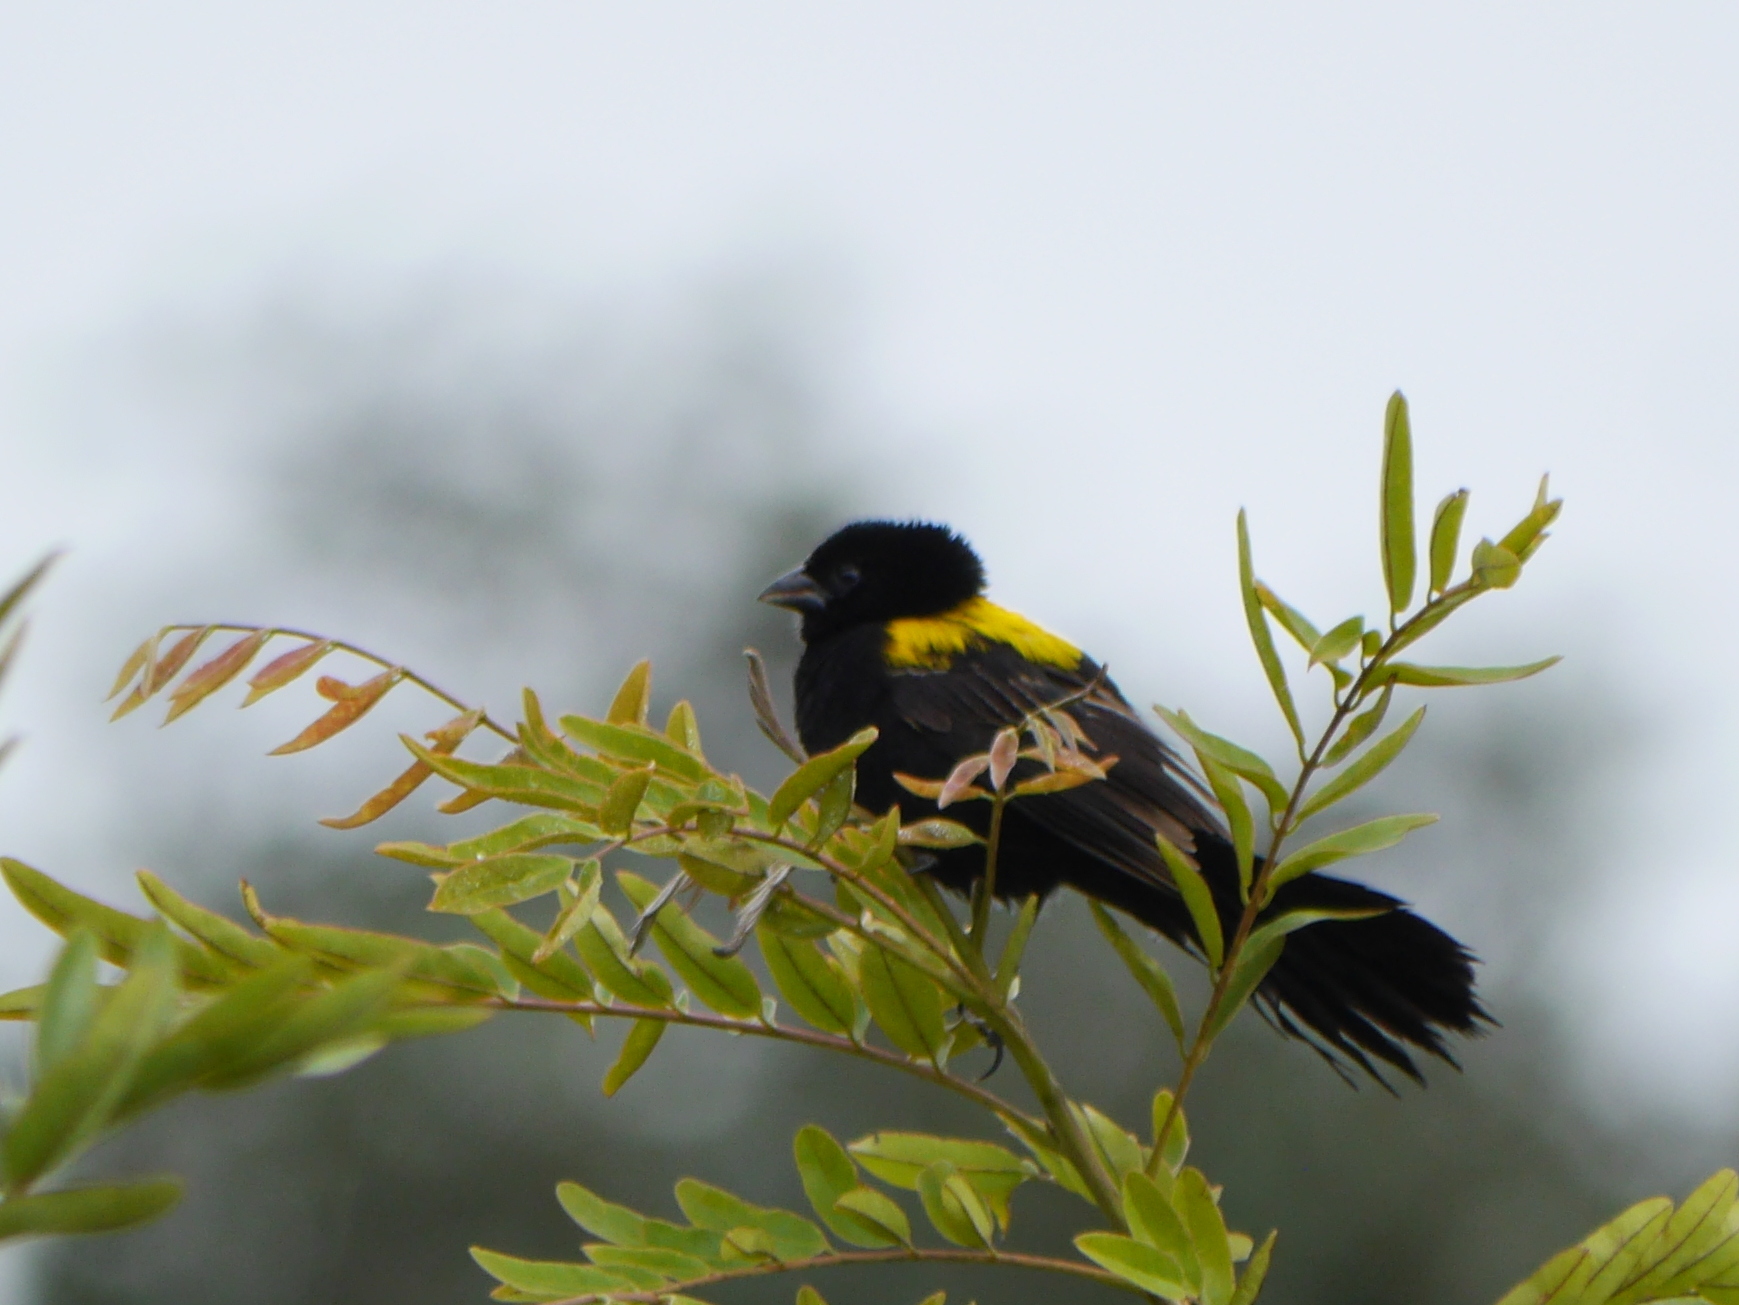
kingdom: Animalia
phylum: Chordata
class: Aves
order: Passeriformes
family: Ploceidae
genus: Euplectes
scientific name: Euplectes macroura
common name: Yellow-mantled widowbird
